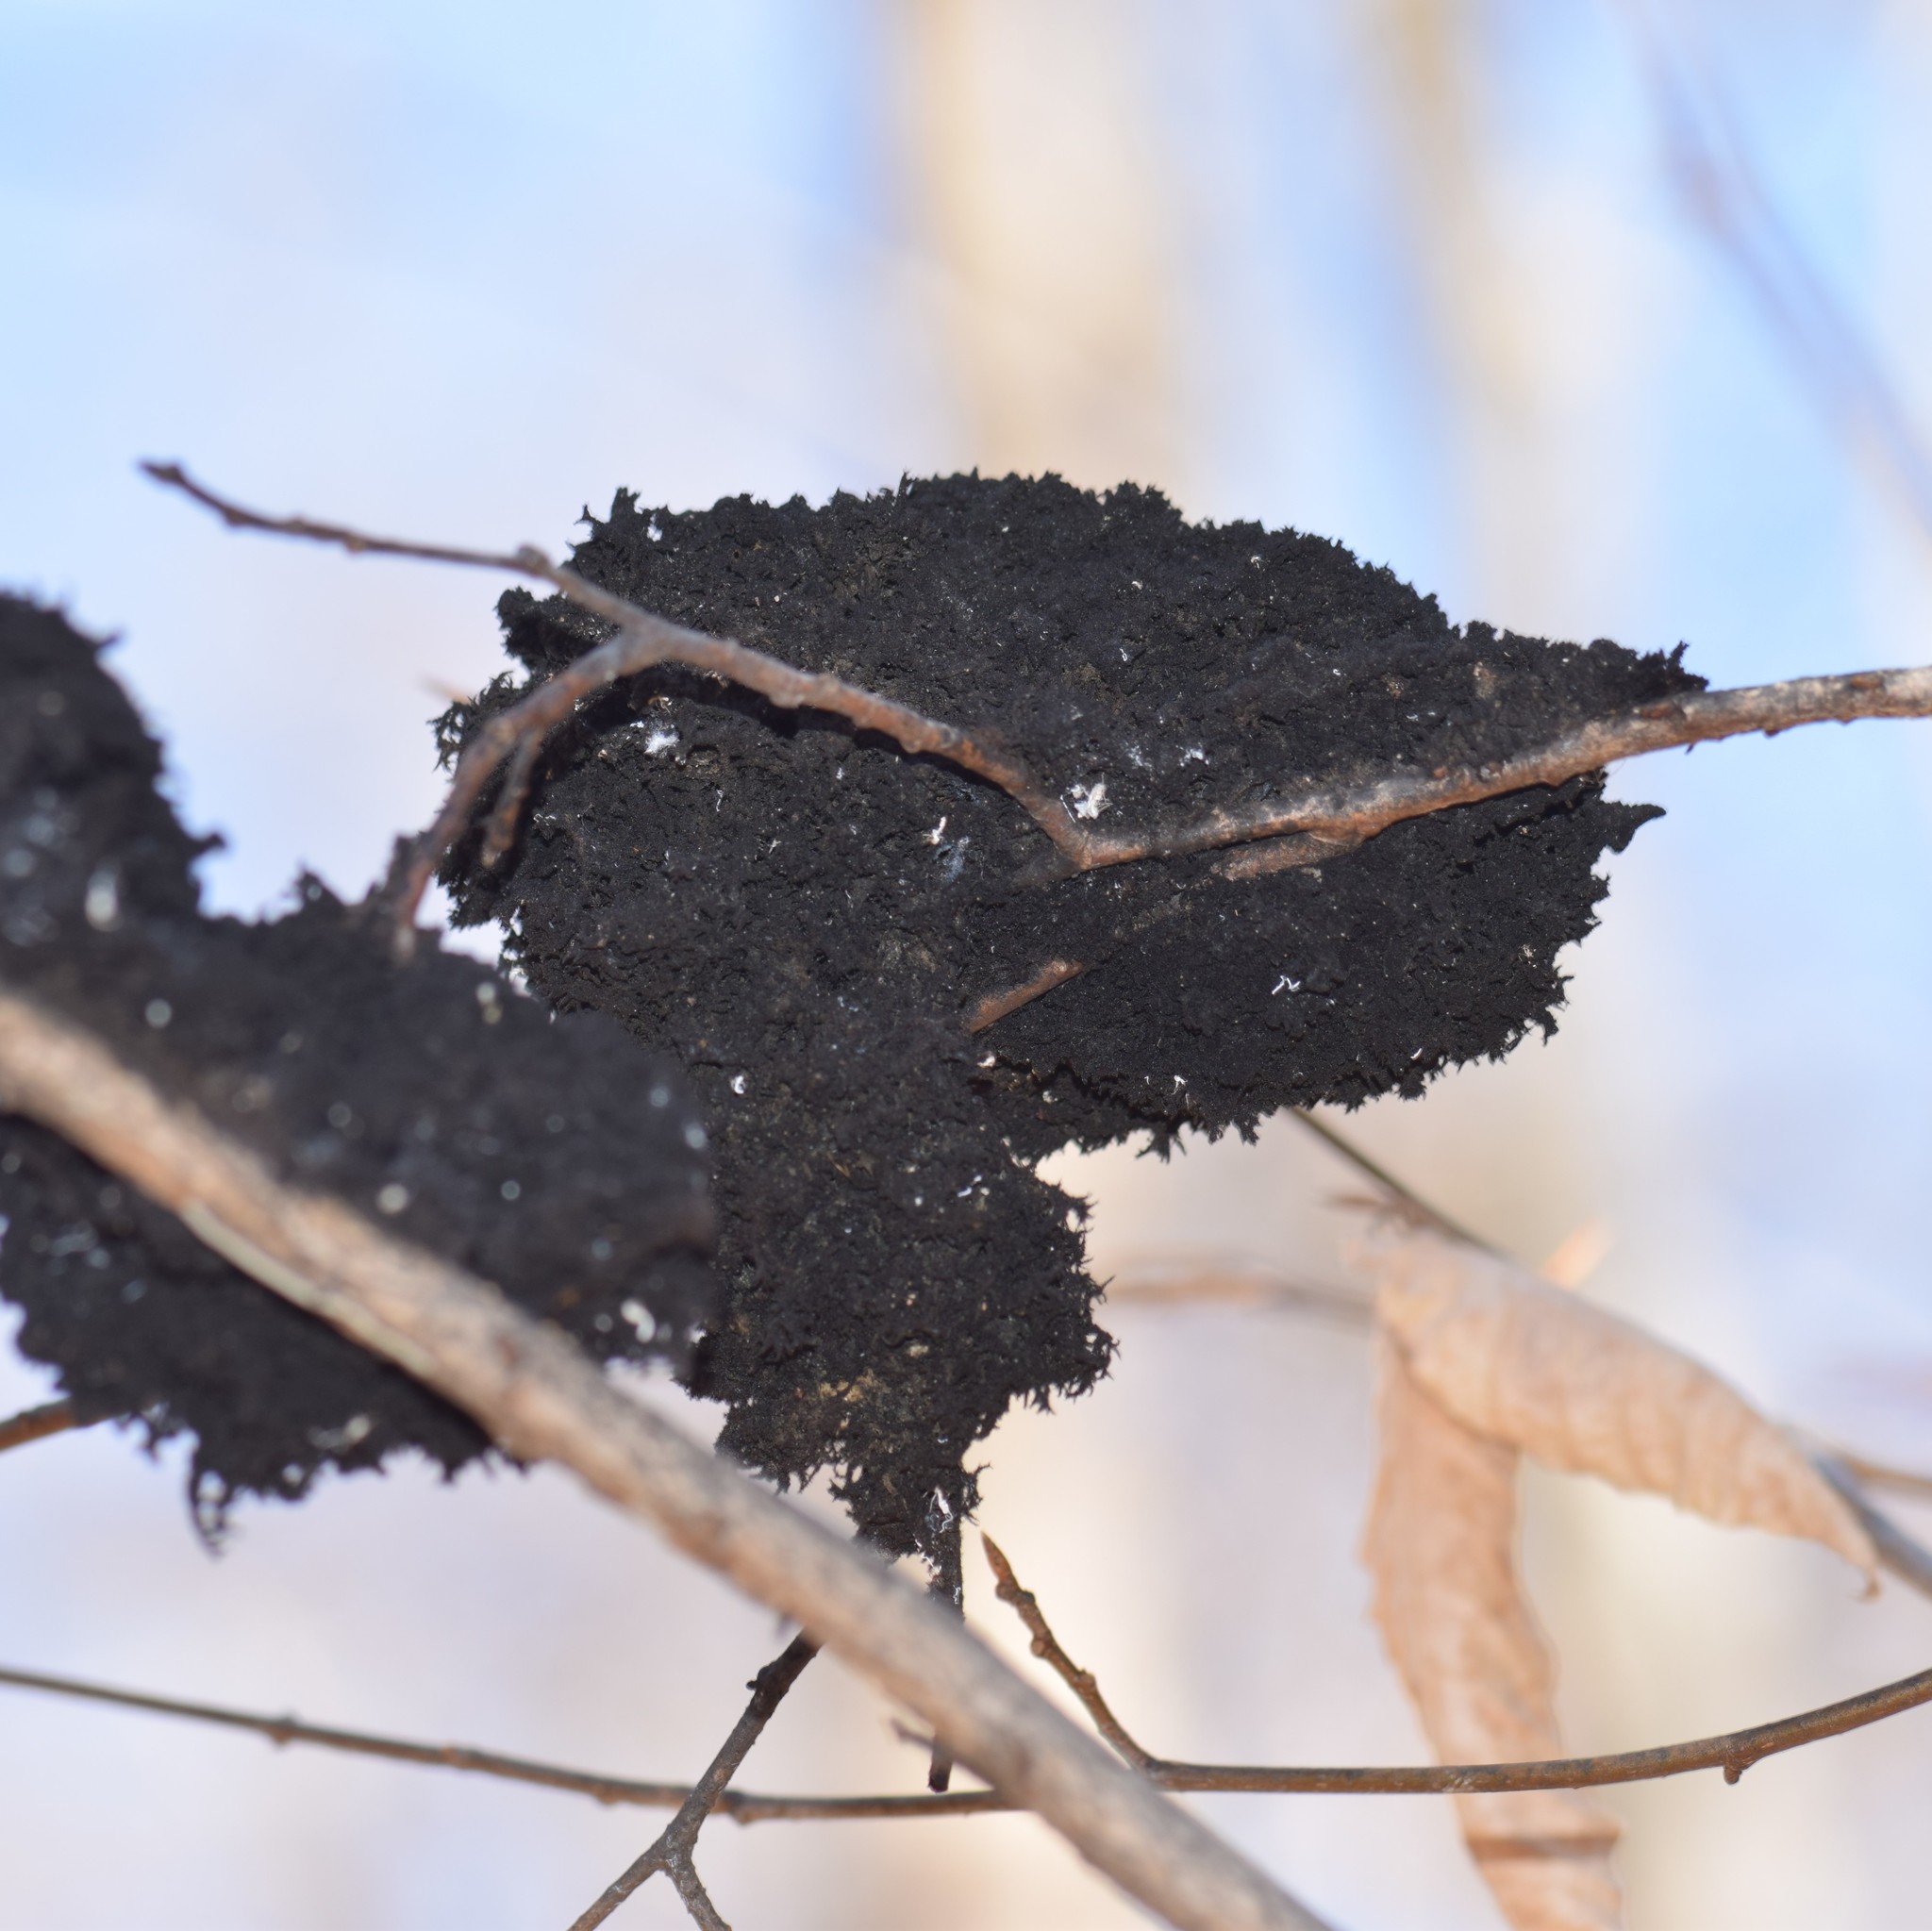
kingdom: Fungi
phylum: Ascomycota
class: Dothideomycetes
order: Capnodiales
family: Capnodiaceae
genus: Scorias
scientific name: Scorias spongiosa
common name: Black sooty mold
